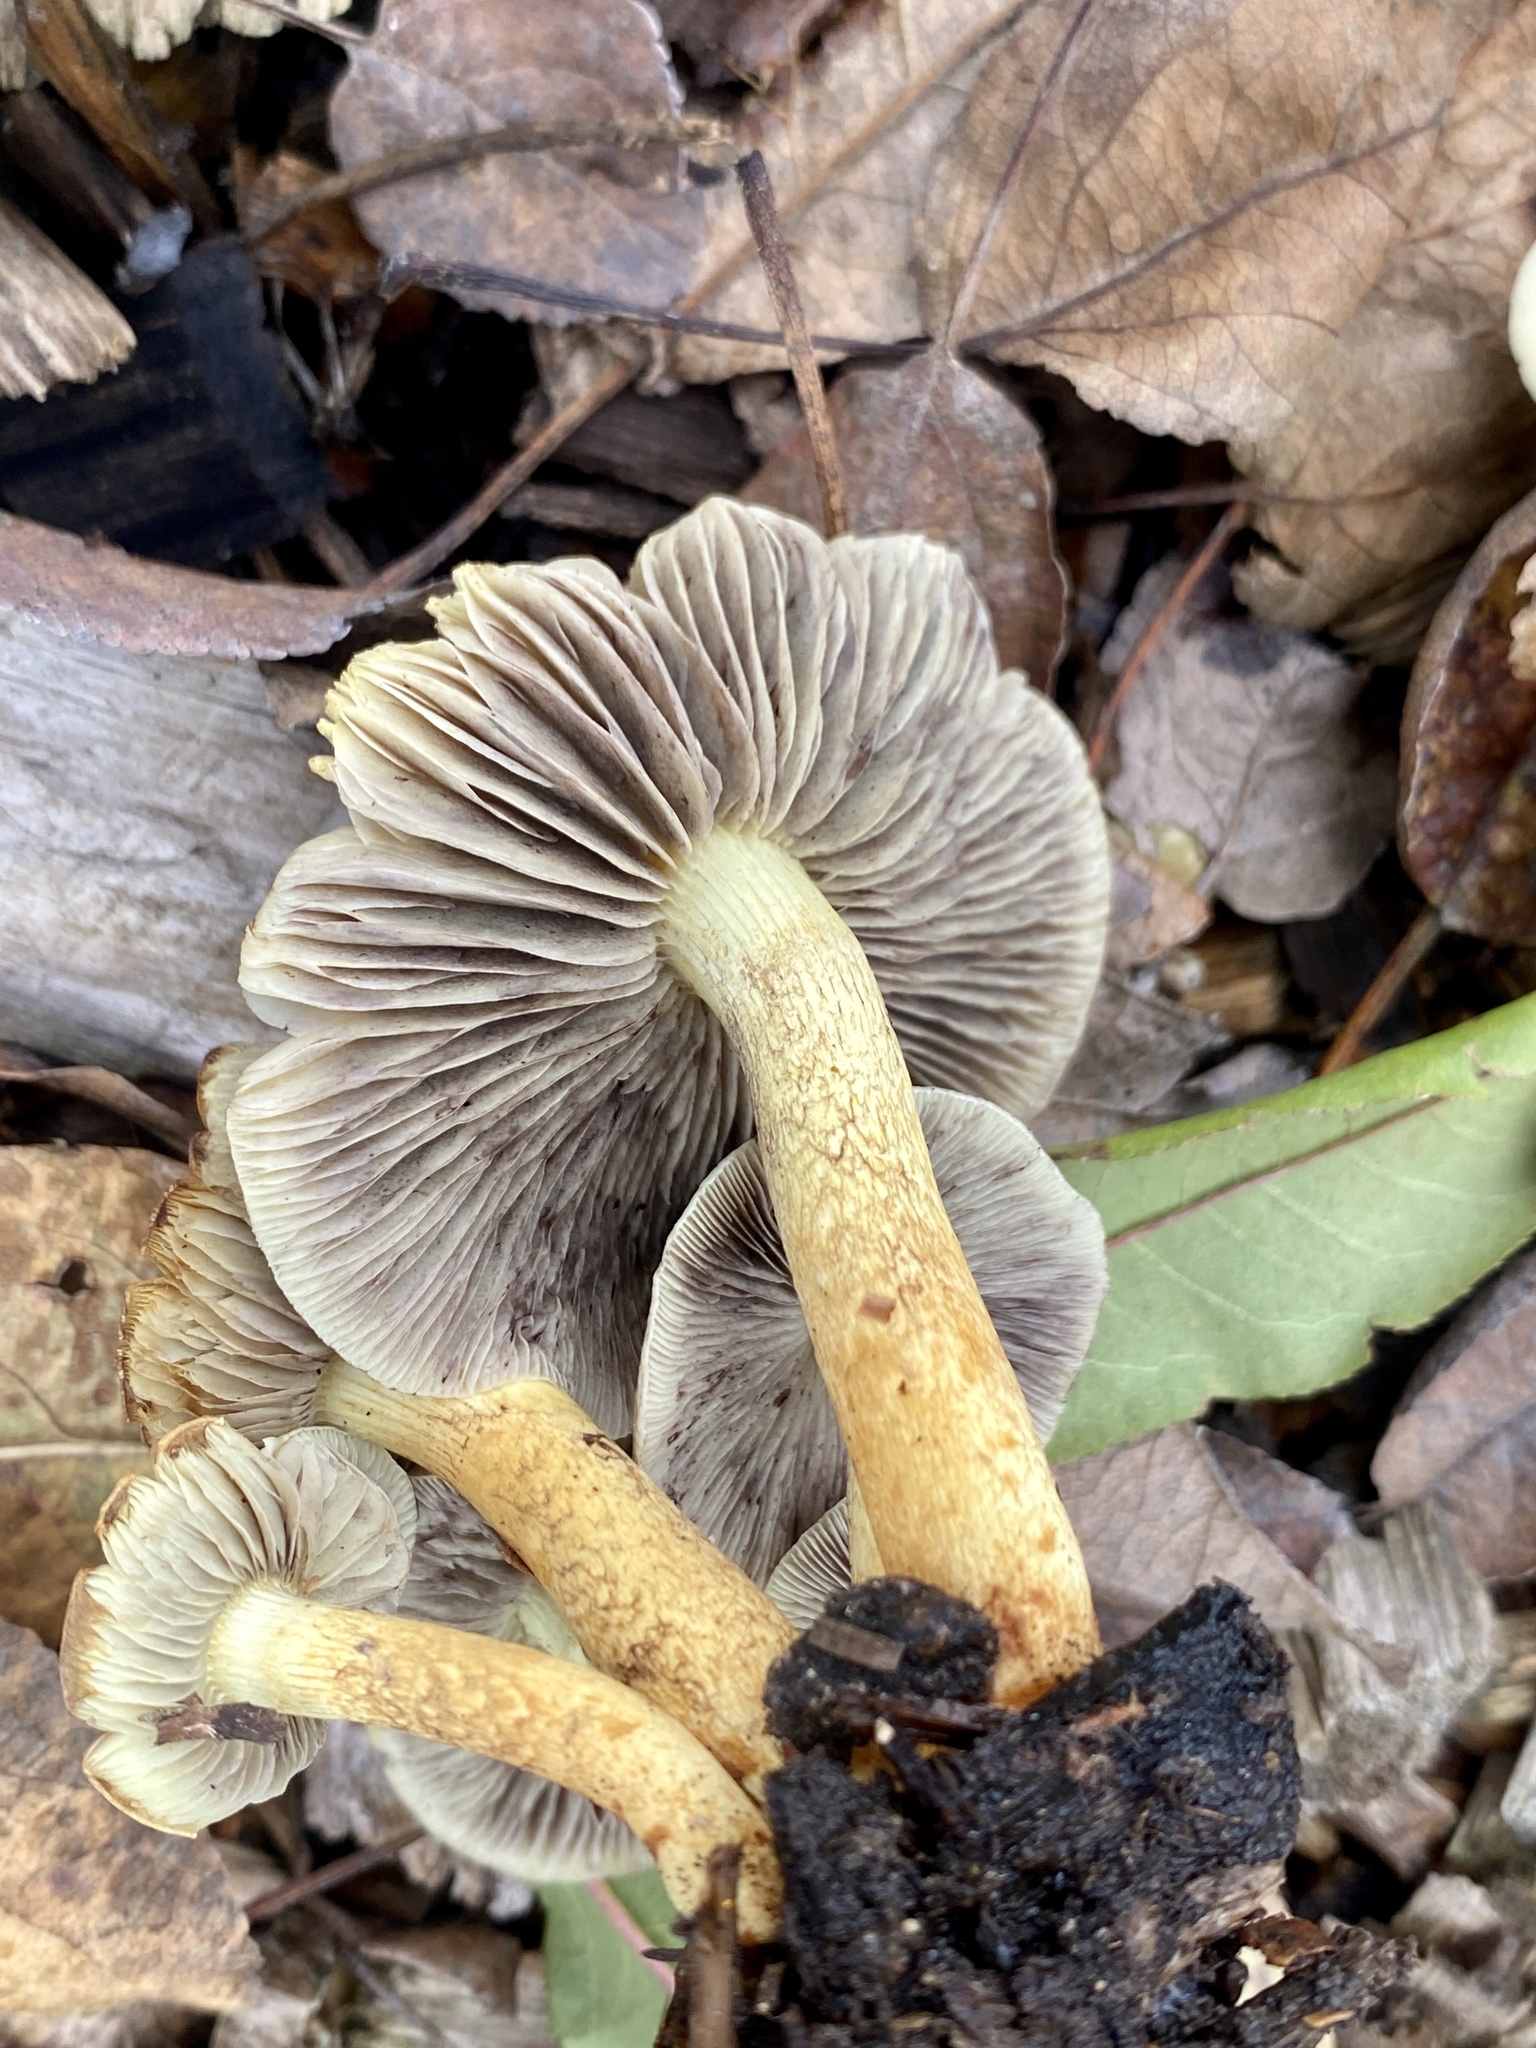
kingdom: Fungi
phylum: Basidiomycota
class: Agaricomycetes
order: Agaricales
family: Strophariaceae
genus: Hypholoma
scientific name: Hypholoma fasciculare
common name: Sulphur tuft
